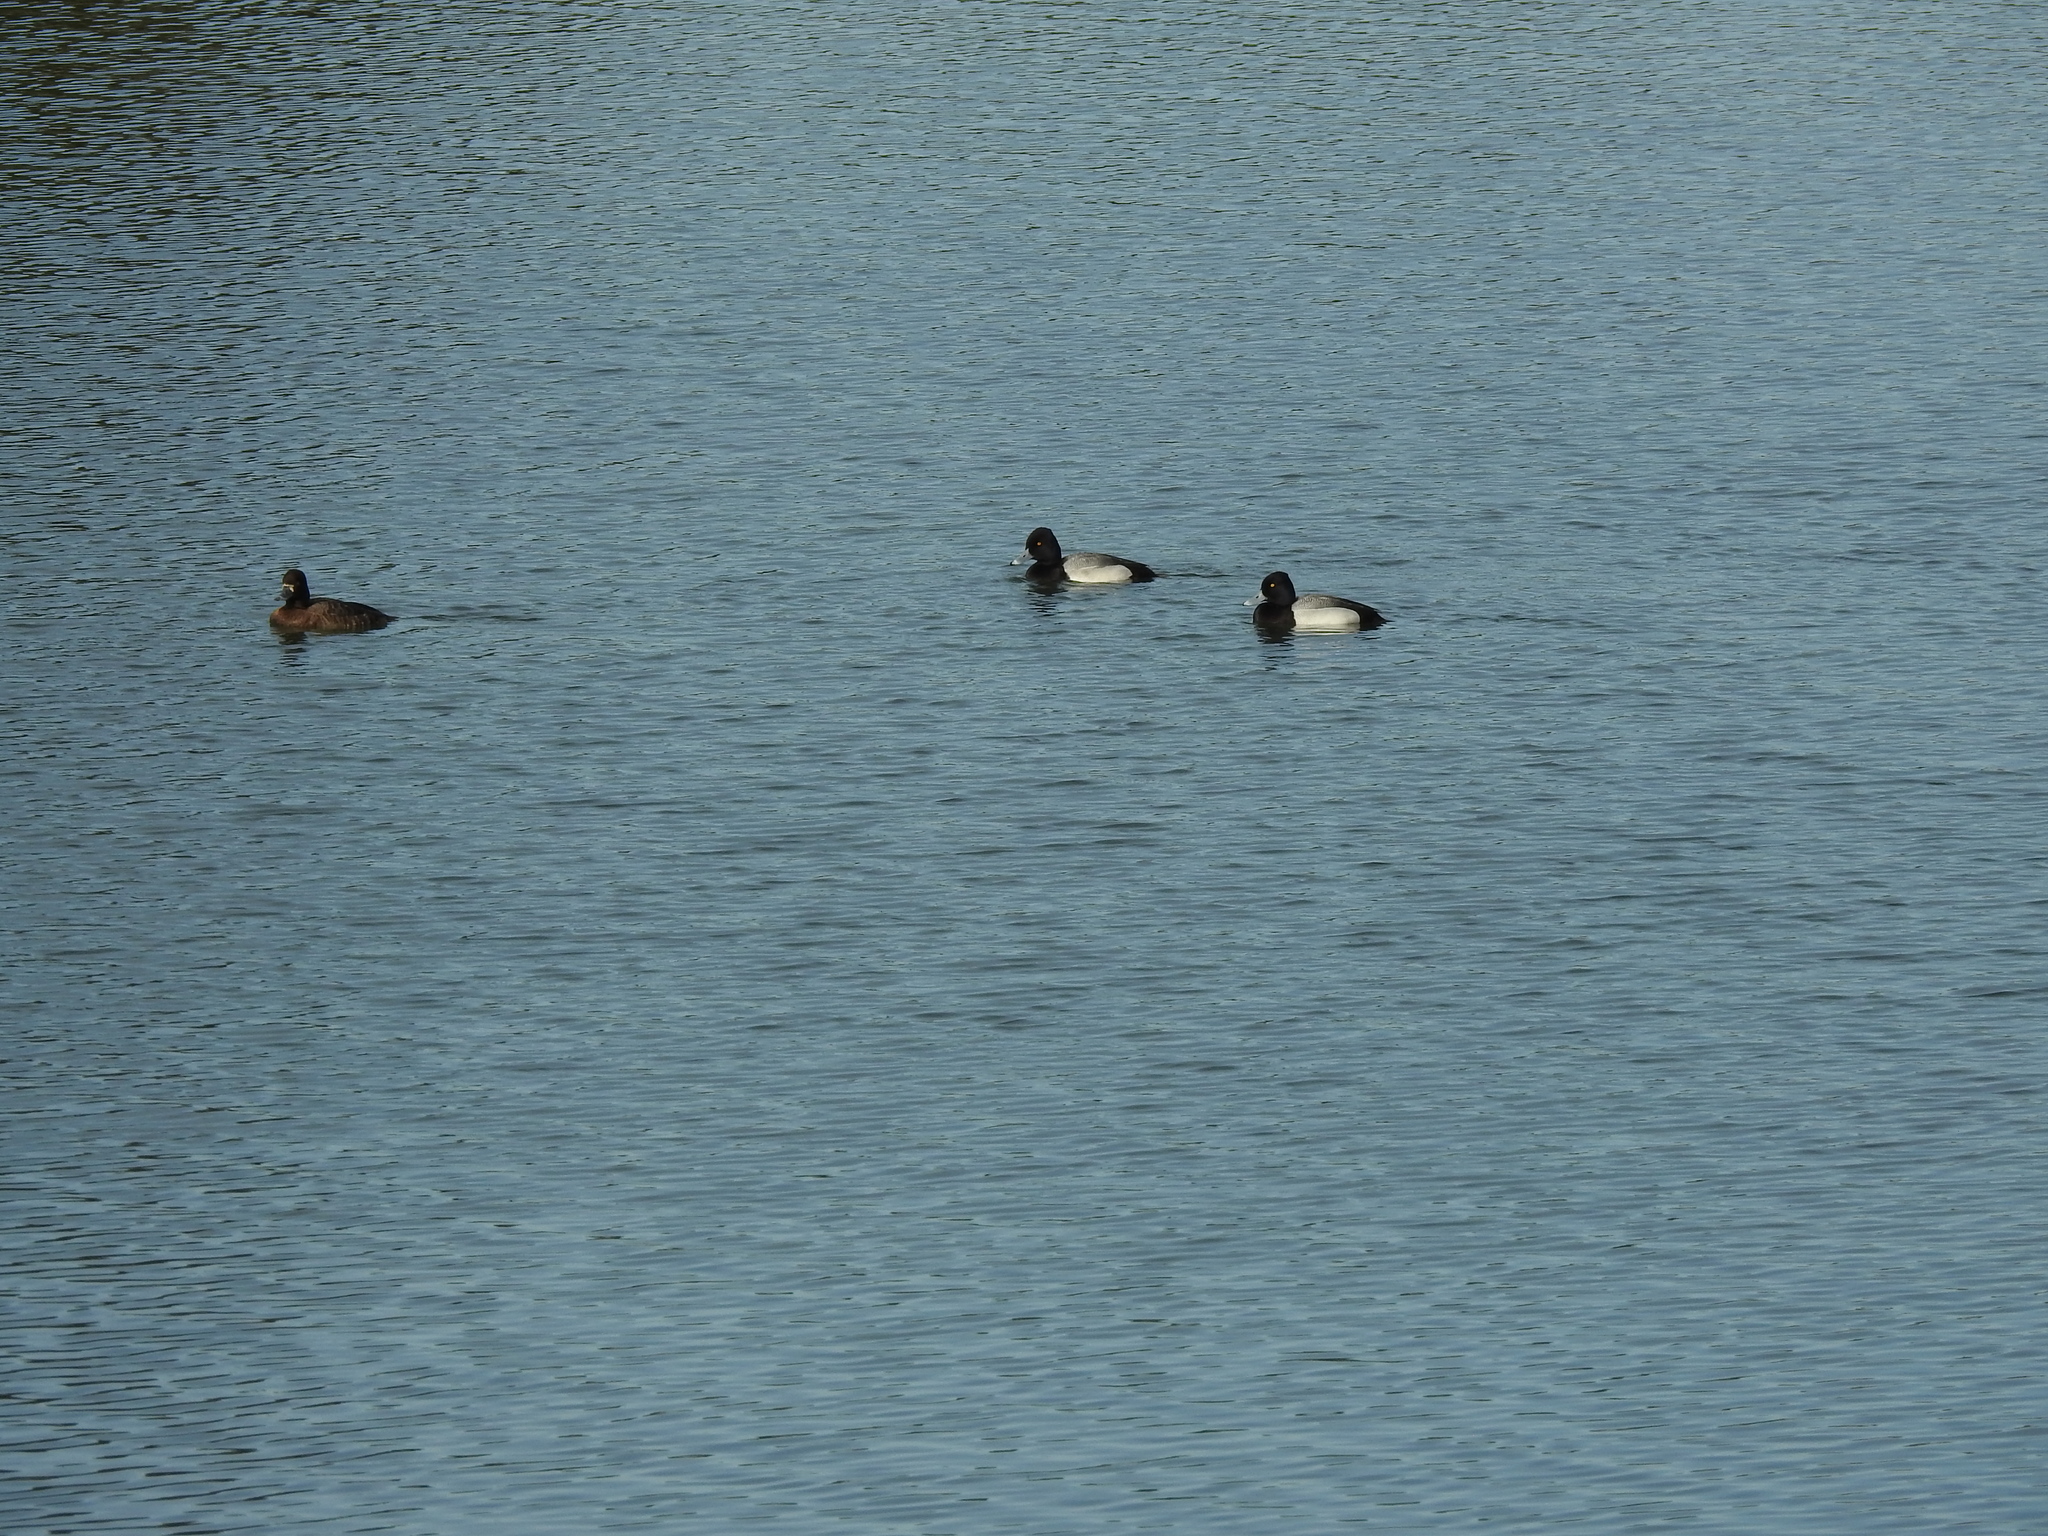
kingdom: Animalia
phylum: Chordata
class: Aves
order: Anseriformes
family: Anatidae
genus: Aythya
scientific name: Aythya affinis
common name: Lesser scaup
